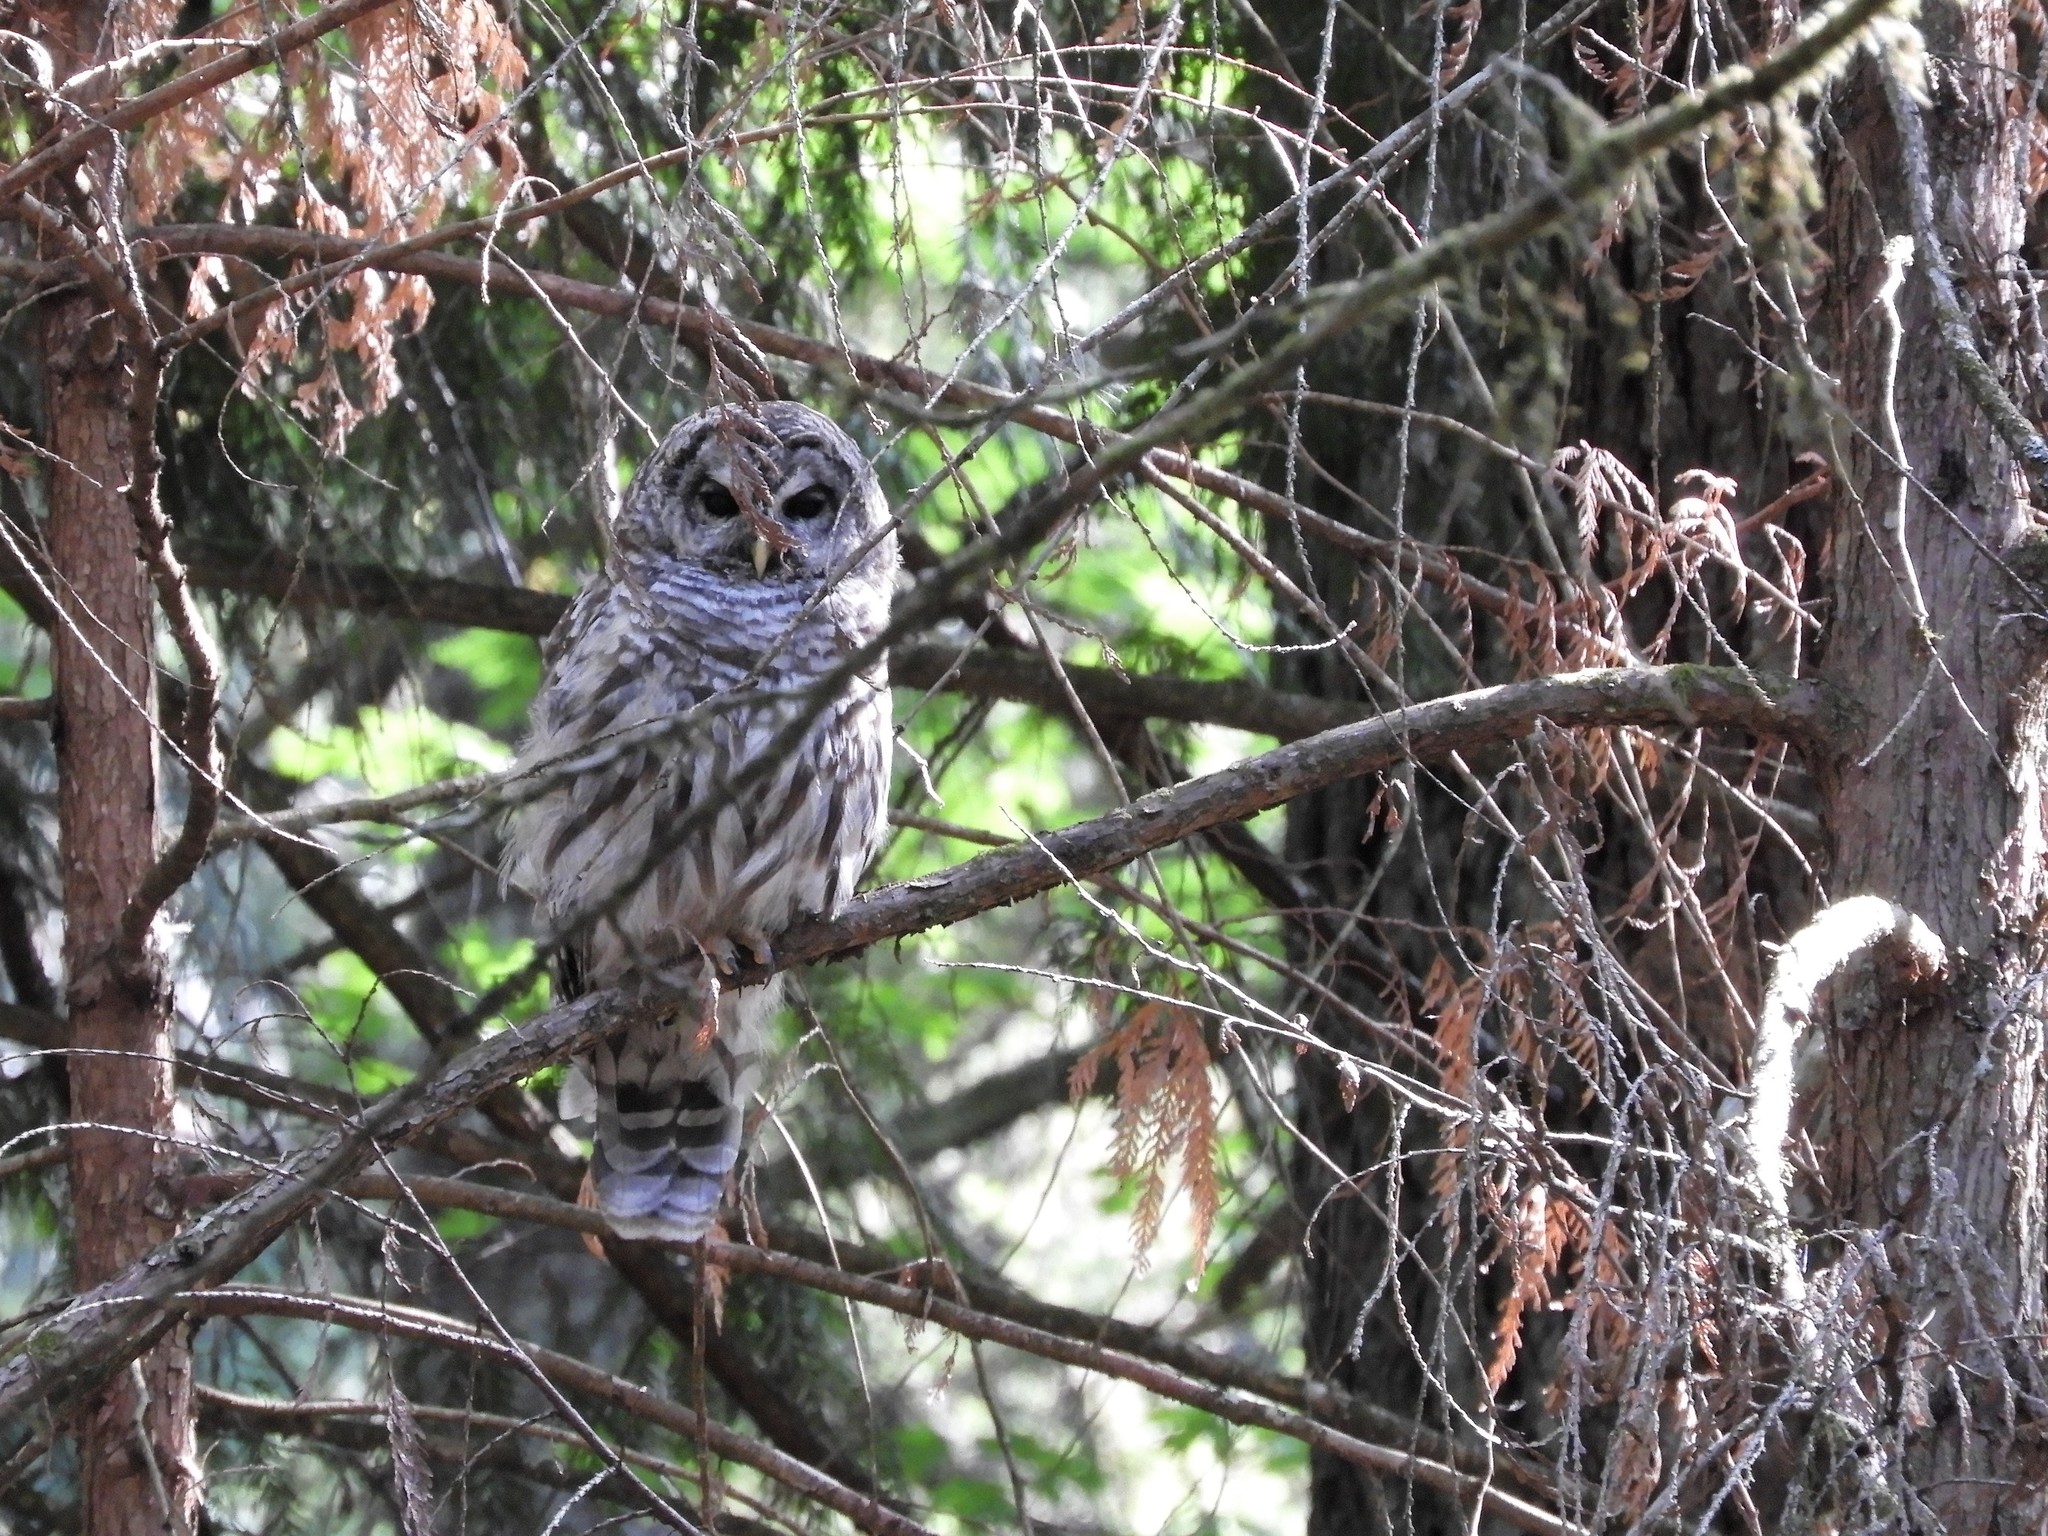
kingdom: Animalia
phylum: Chordata
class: Aves
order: Strigiformes
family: Strigidae
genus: Strix
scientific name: Strix varia
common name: Barred owl
